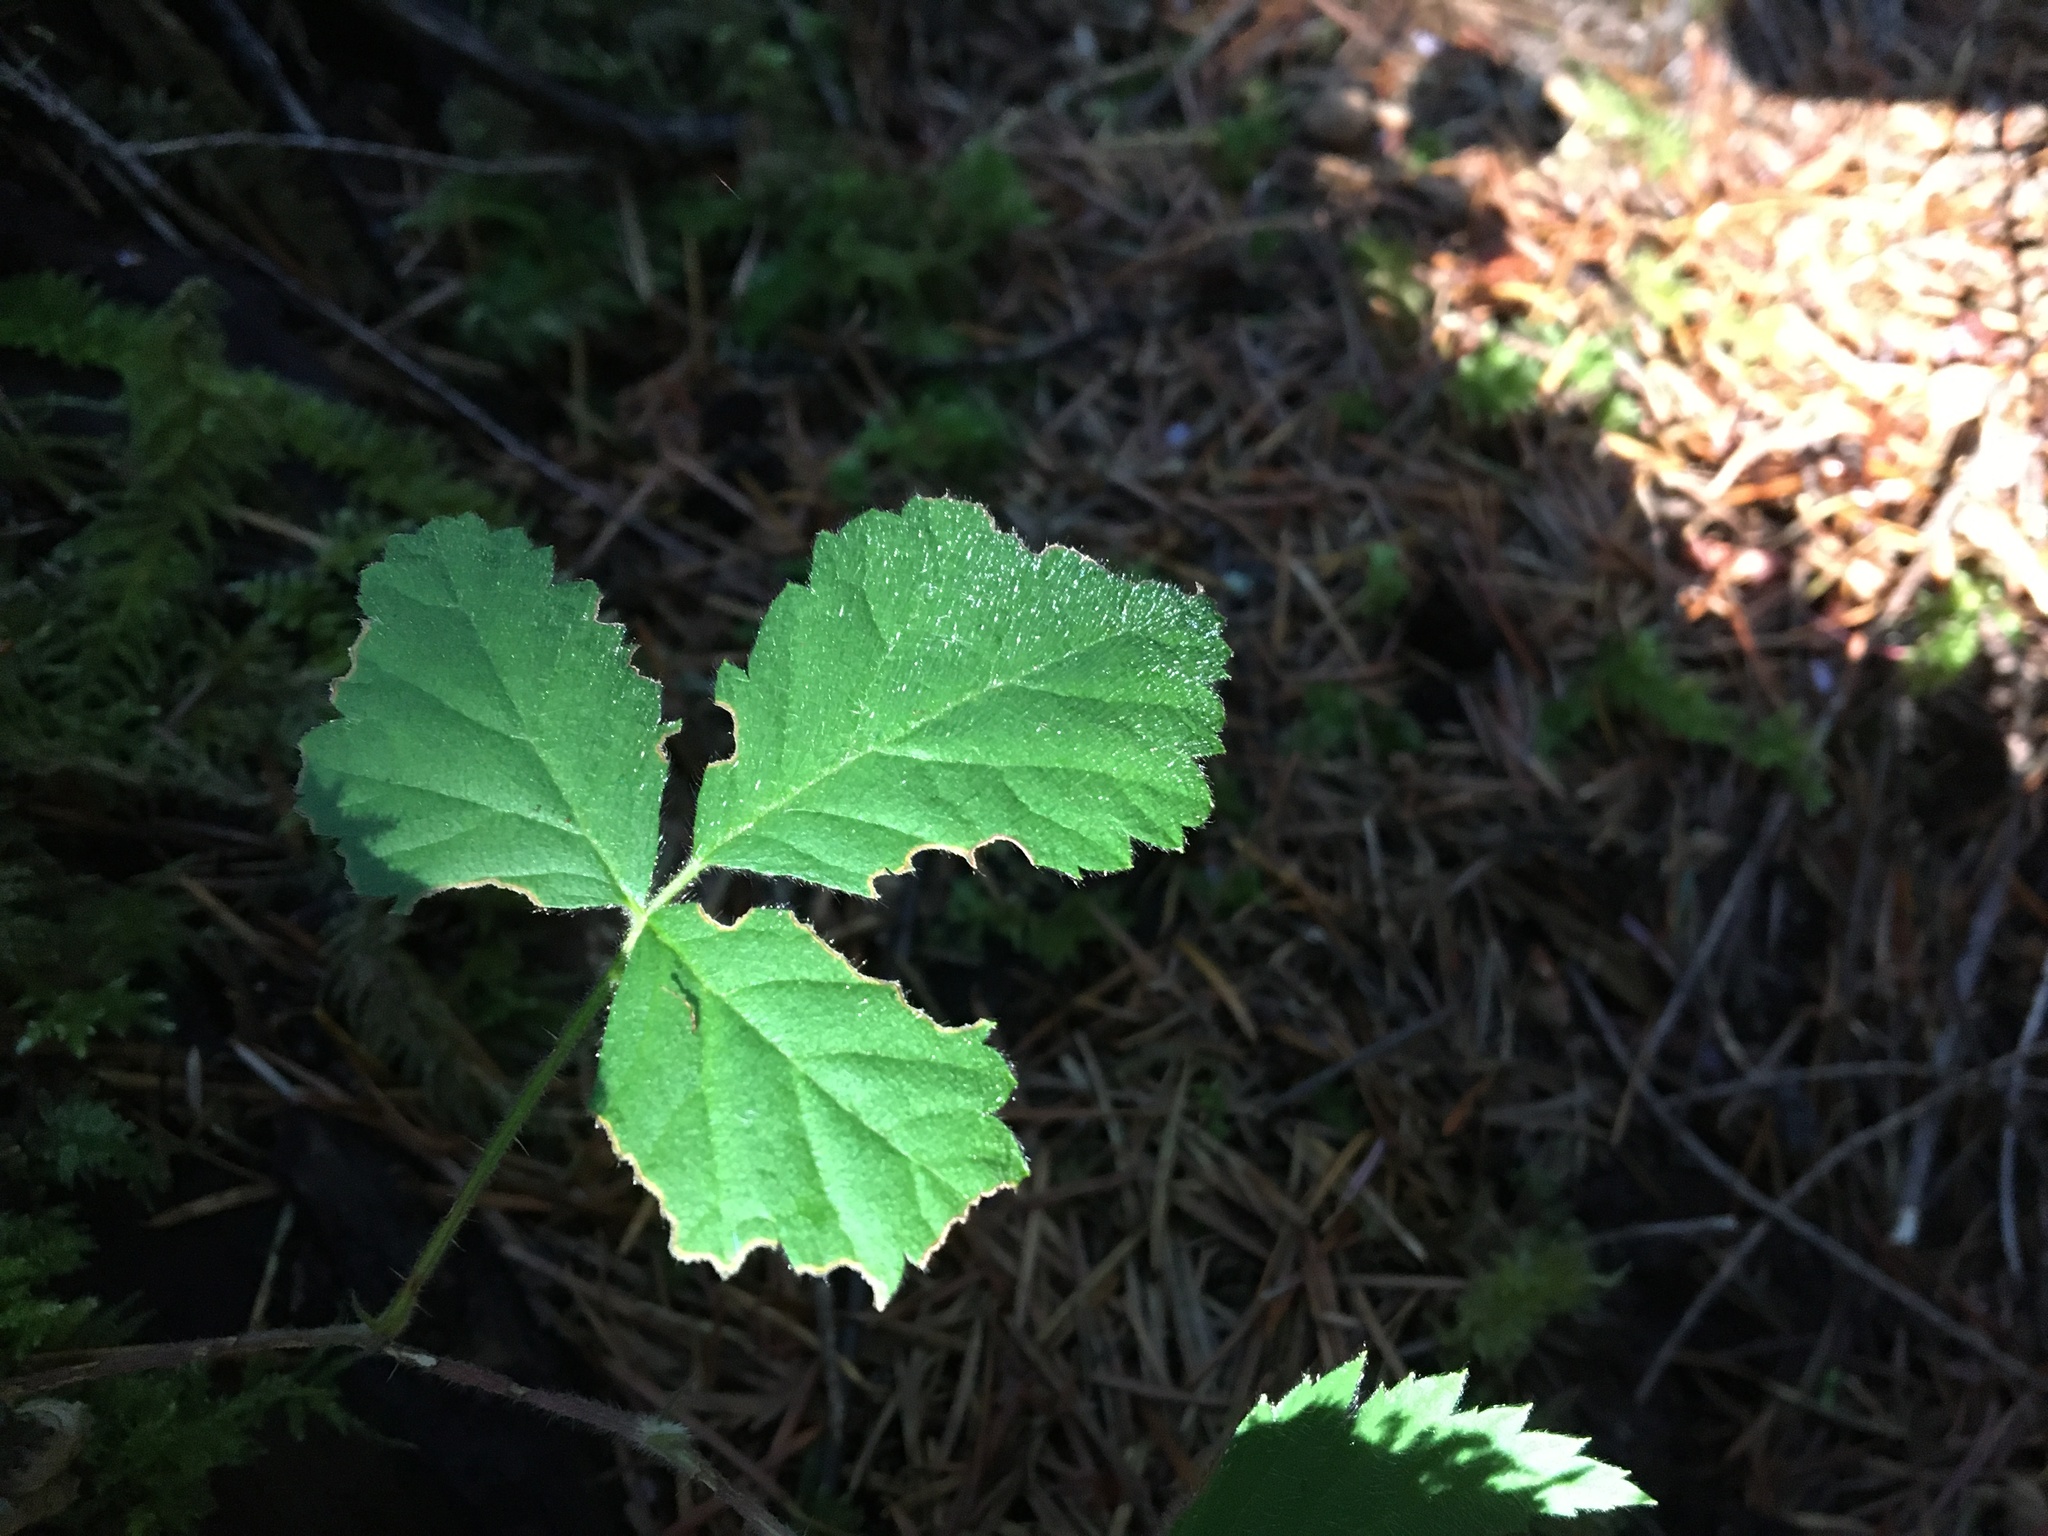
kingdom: Plantae
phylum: Tracheophyta
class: Magnoliopsida
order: Rosales
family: Rosaceae
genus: Rubus
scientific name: Rubus ursinus
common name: Pacific blackberry
